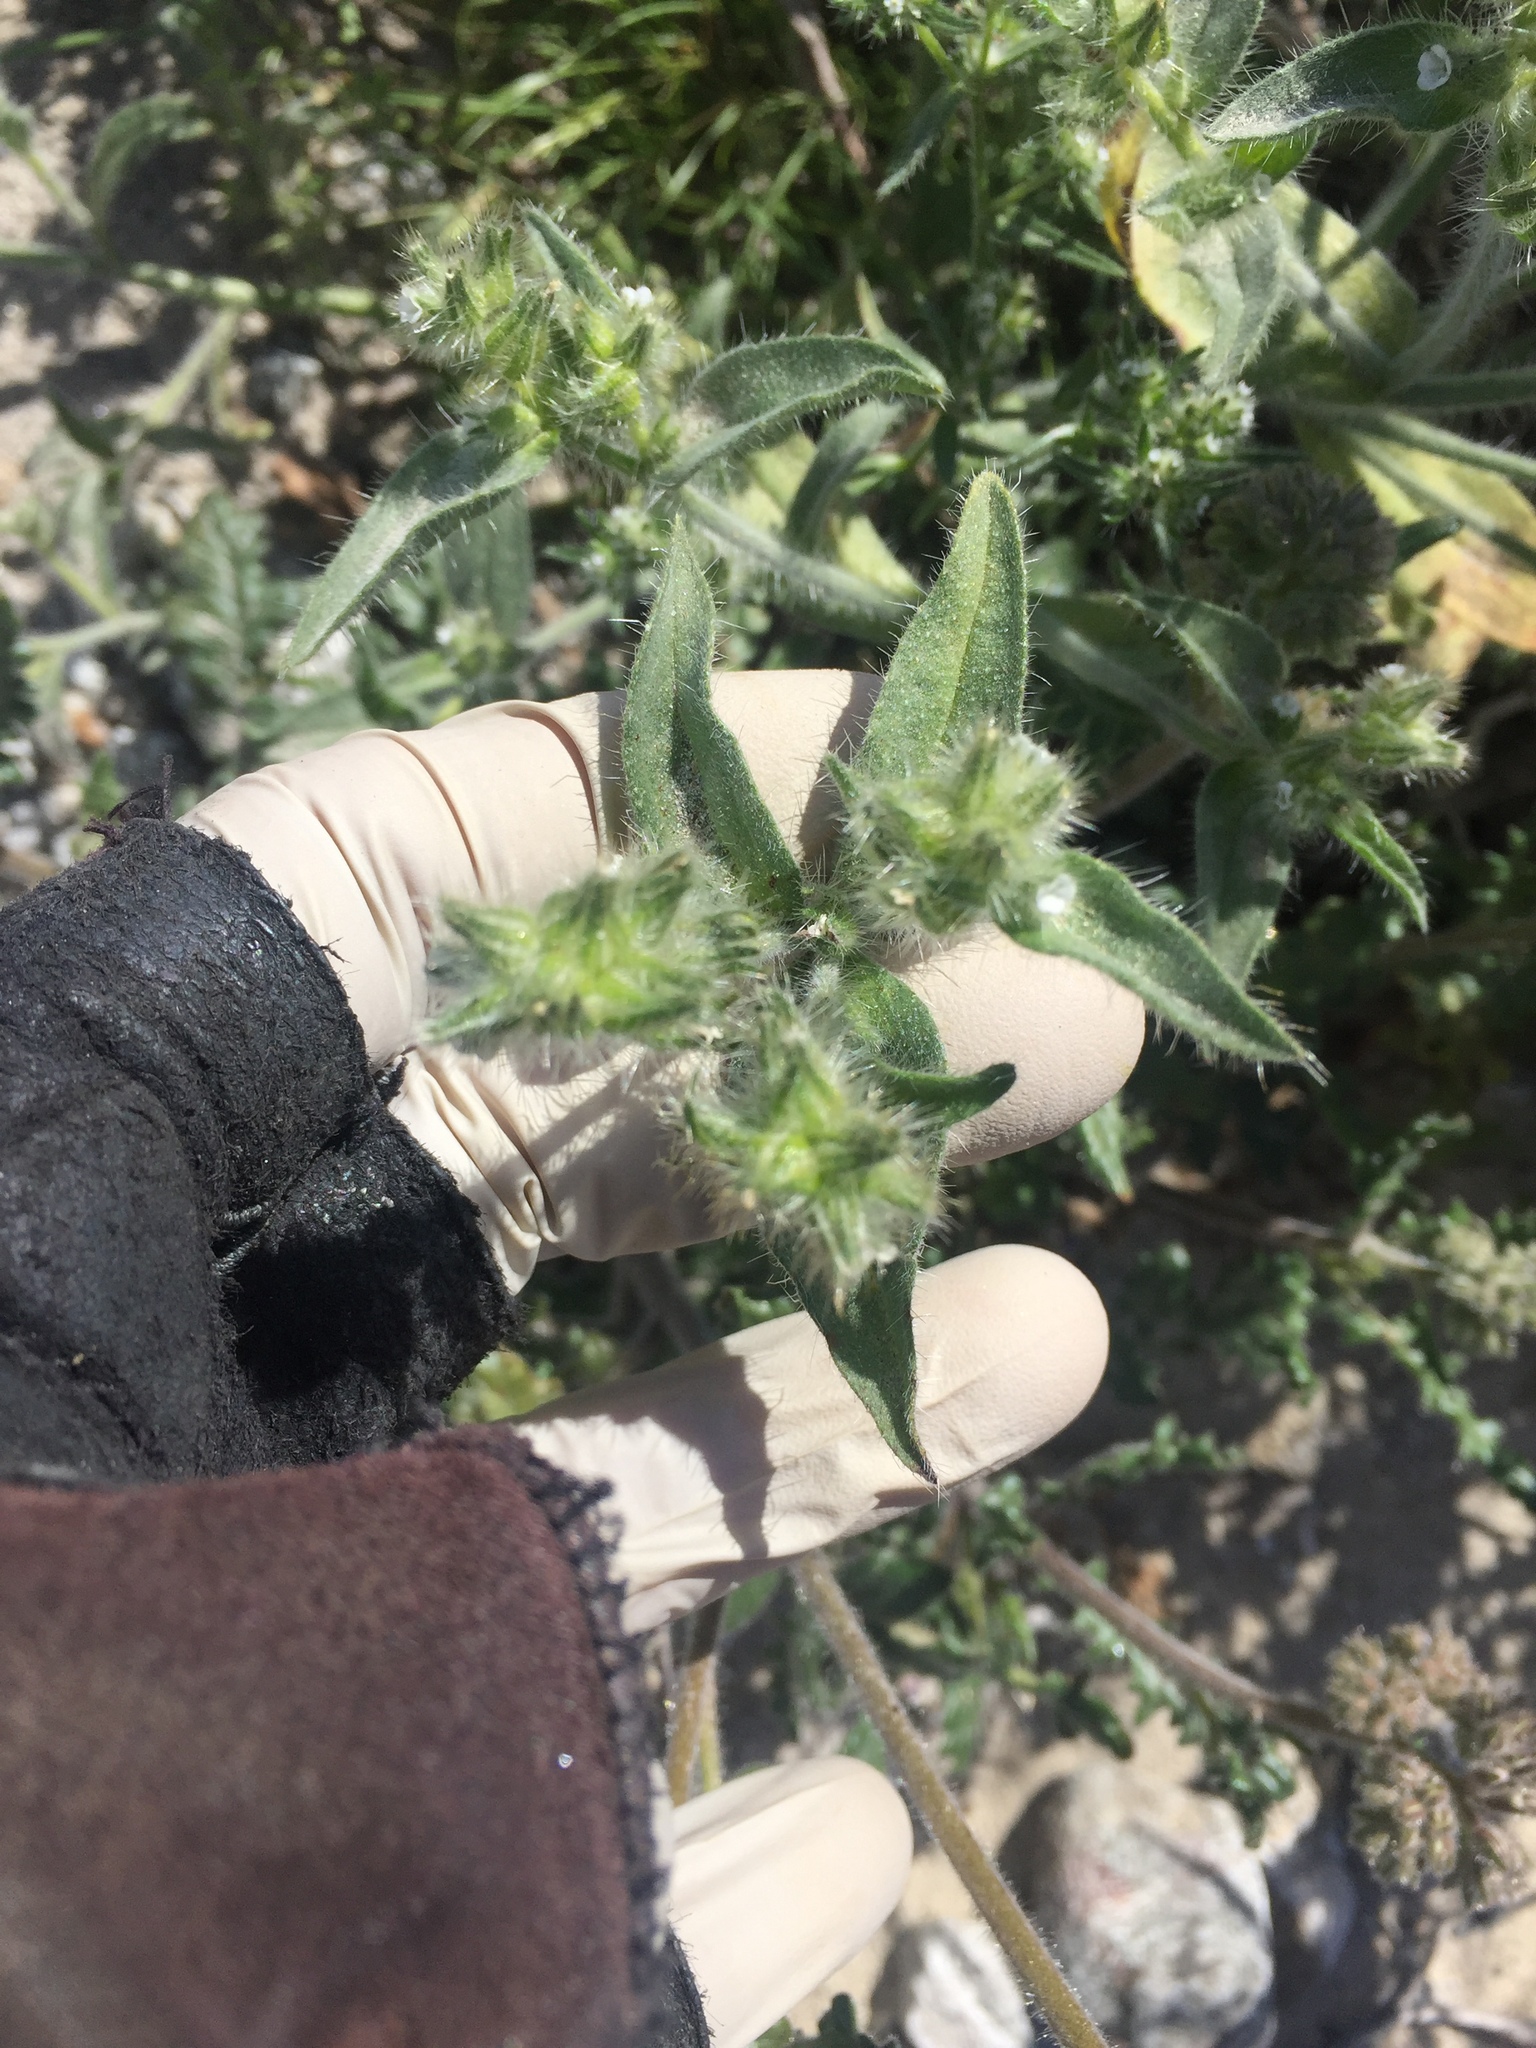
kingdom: Plantae
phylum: Tracheophyta
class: Magnoliopsida
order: Boraginales
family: Boraginaceae
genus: Simpsonanthus
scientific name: Simpsonanthus jonesii
